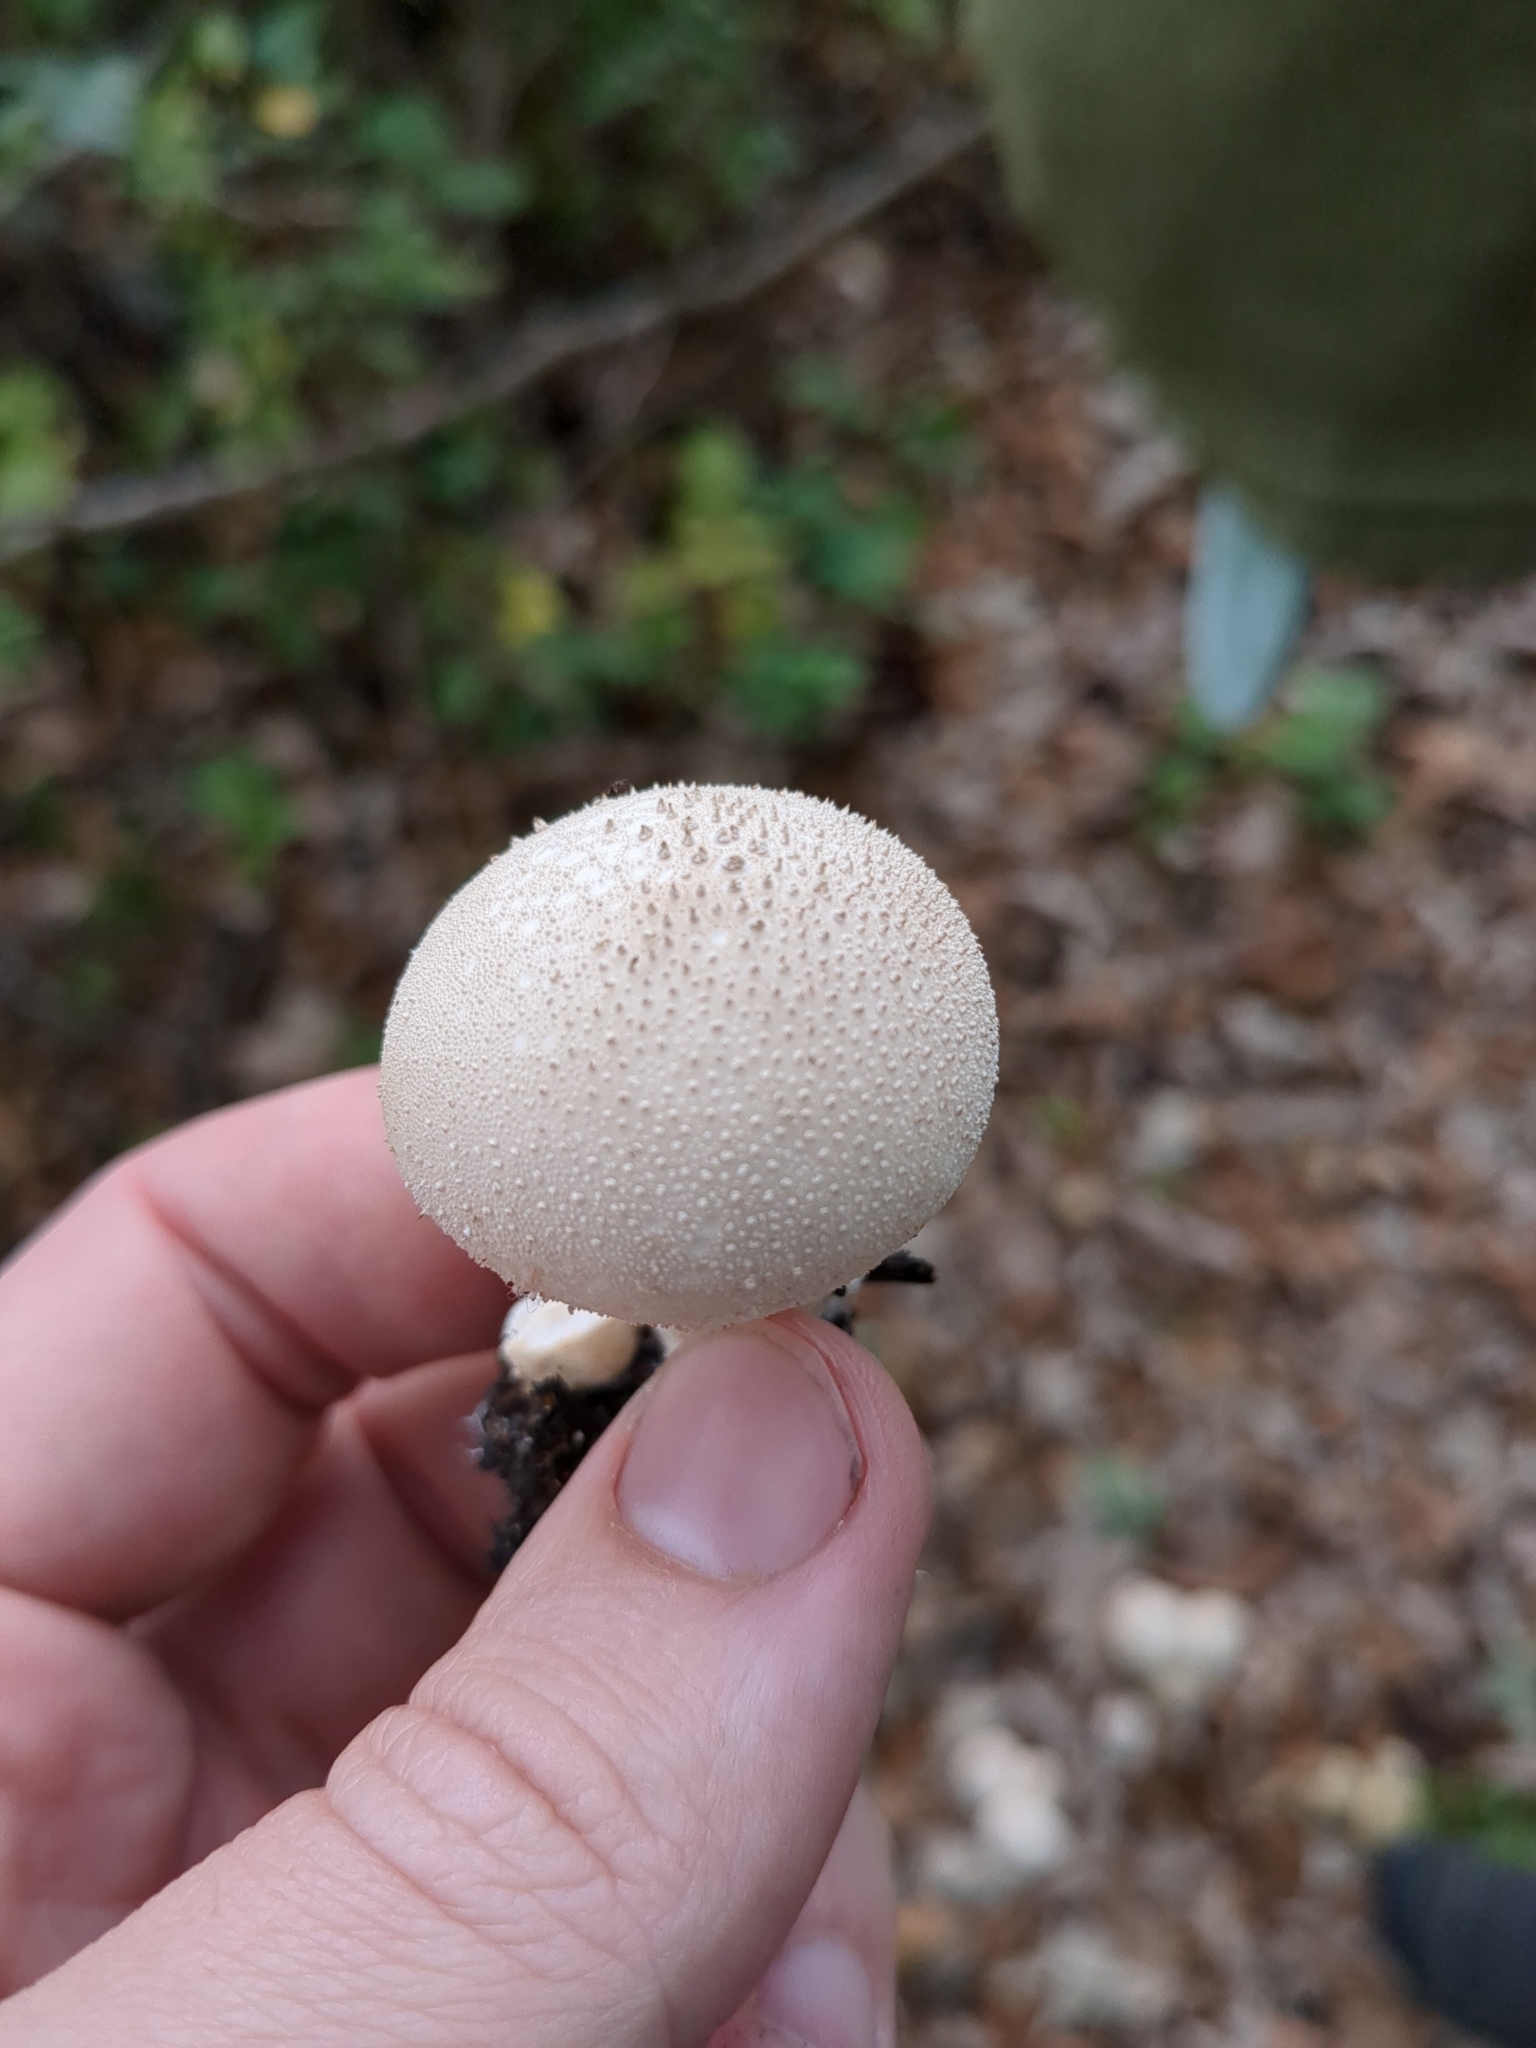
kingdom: Fungi
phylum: Basidiomycota
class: Agaricomycetes
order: Agaricales
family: Lycoperdaceae
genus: Lycoperdon
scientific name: Lycoperdon perlatum
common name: Common puffball
